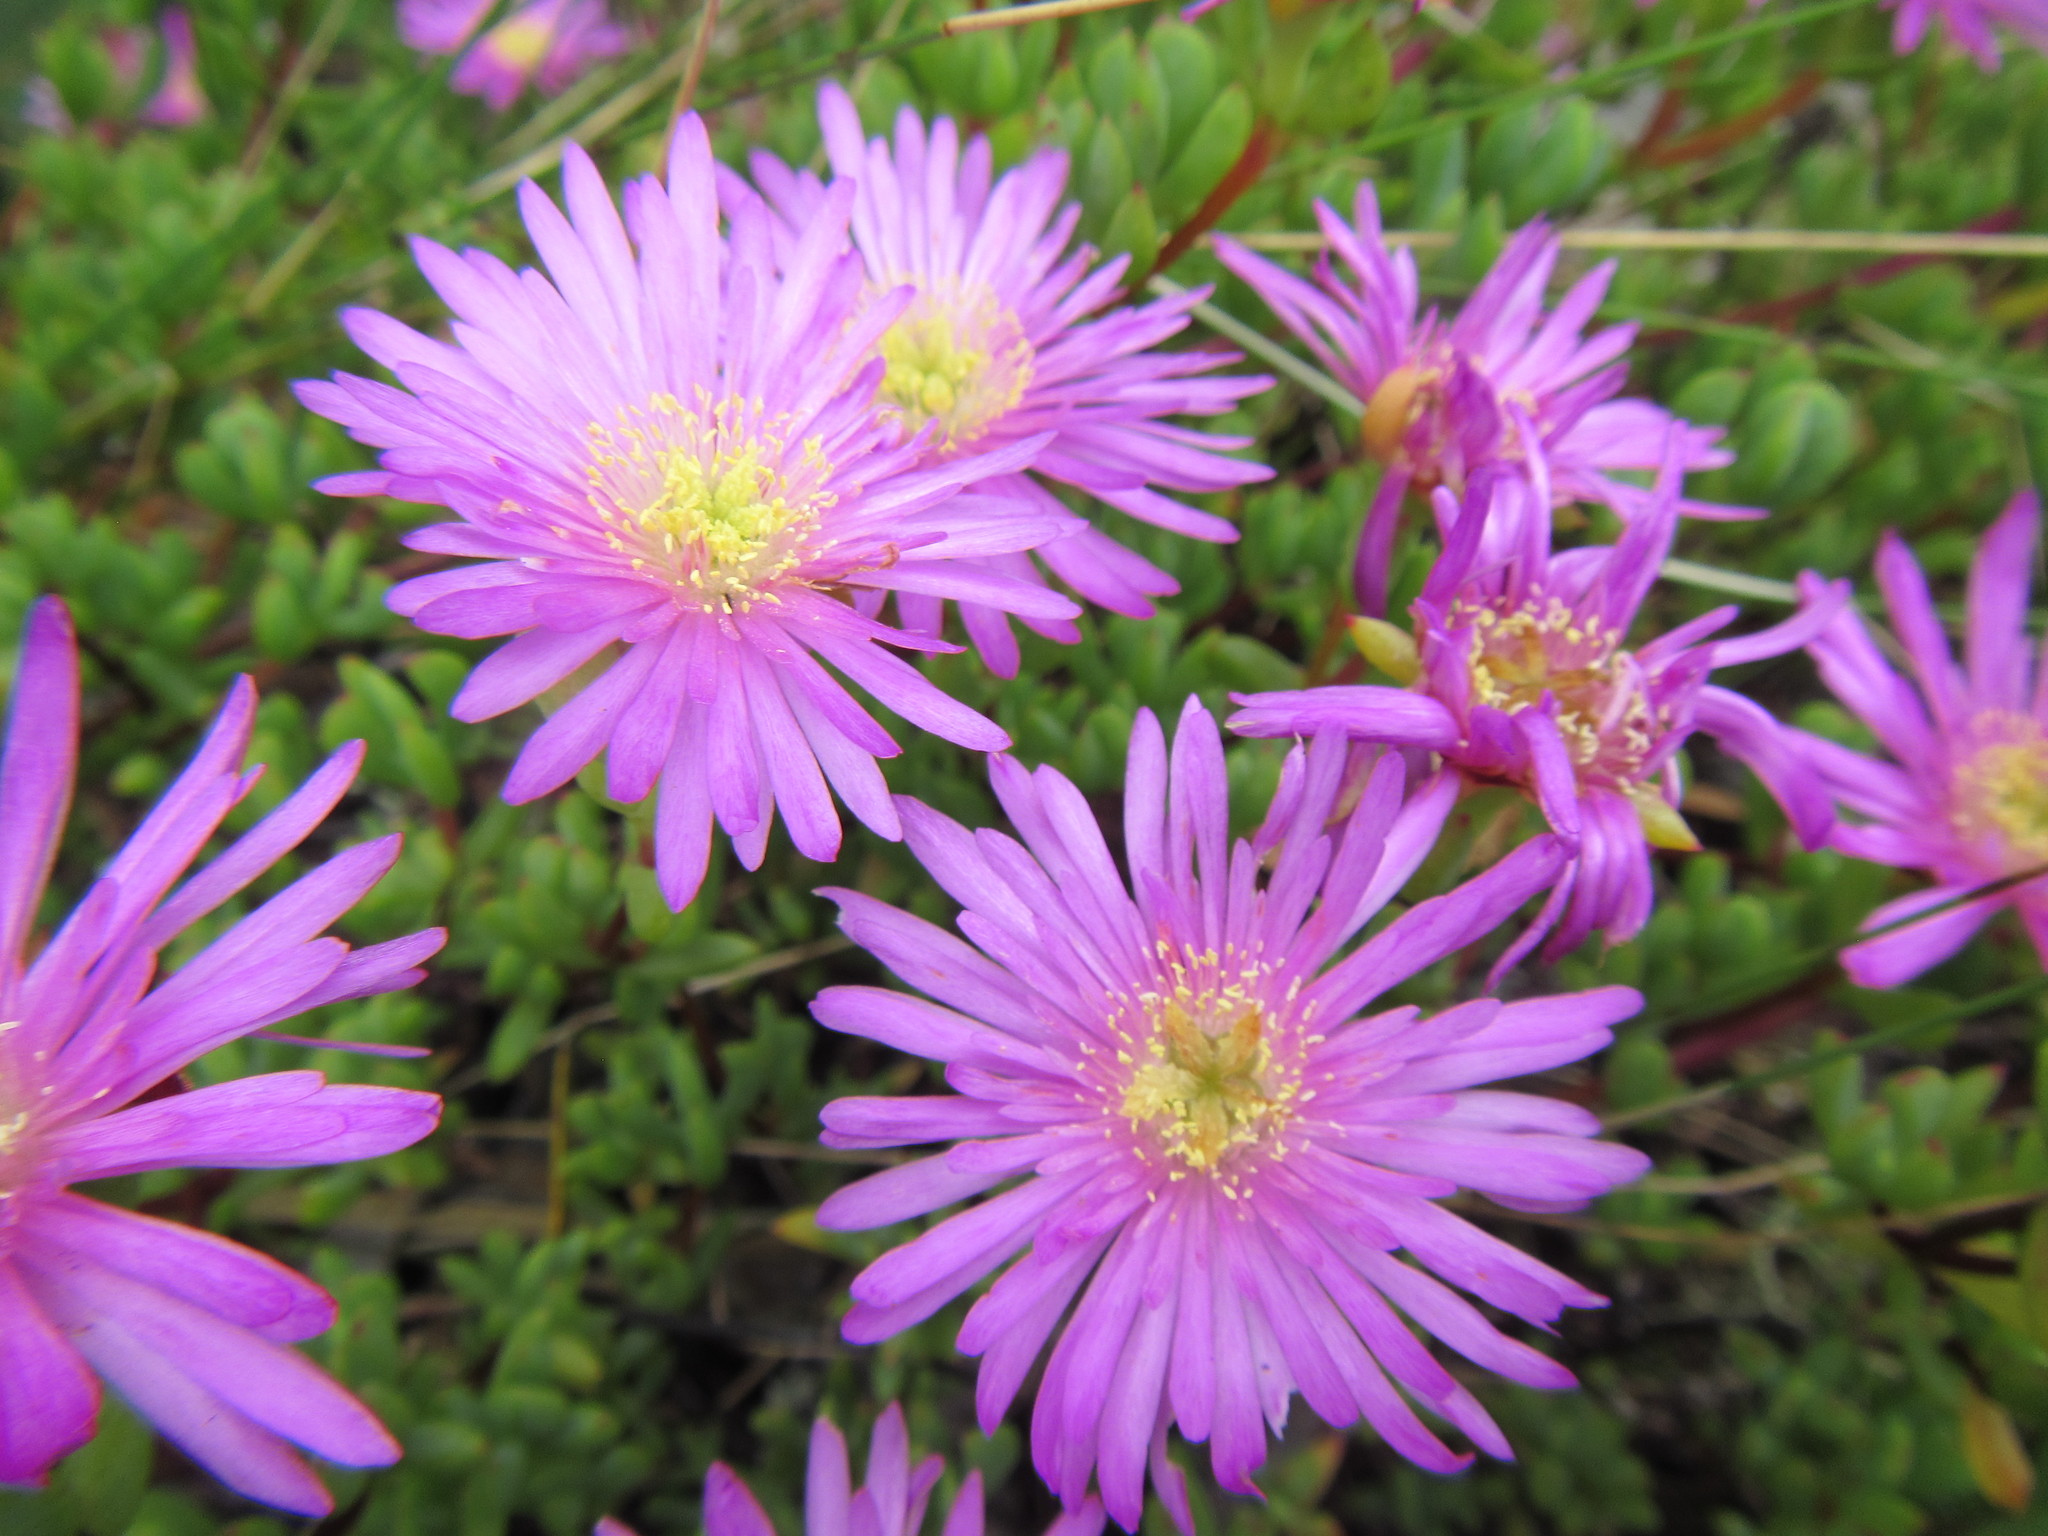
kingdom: Plantae
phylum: Tracheophyta
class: Magnoliopsida
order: Caryophyllales
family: Aizoaceae
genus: Oscularia
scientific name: Oscularia falciformis
